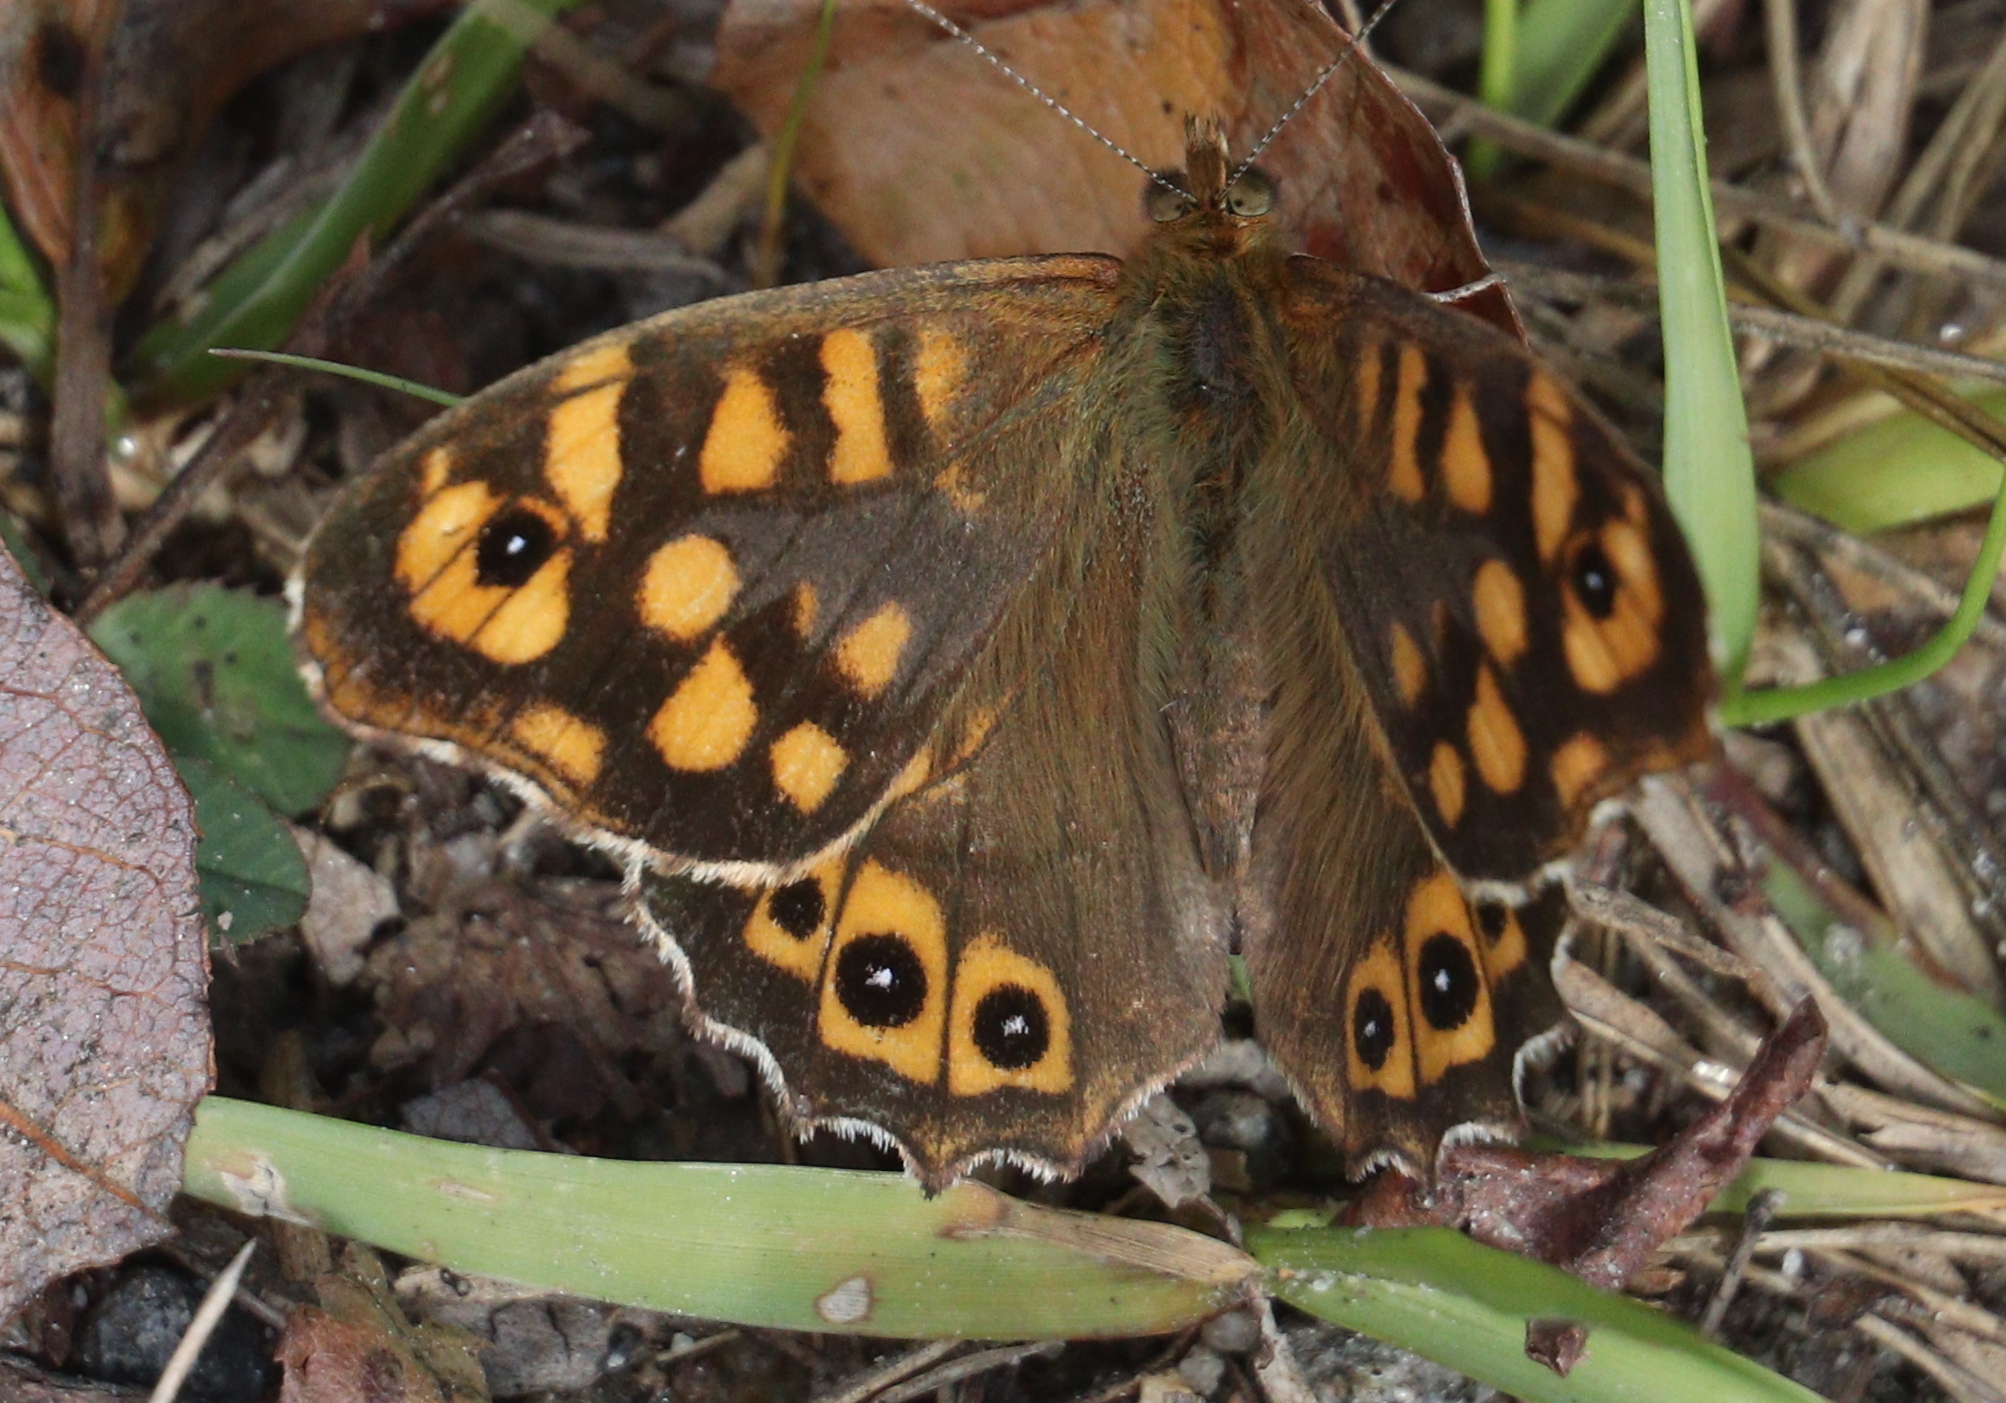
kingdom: Animalia
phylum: Arthropoda
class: Insecta
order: Lepidoptera
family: Nymphalidae
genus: Pararge
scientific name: Pararge aegeria
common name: Speckled wood
